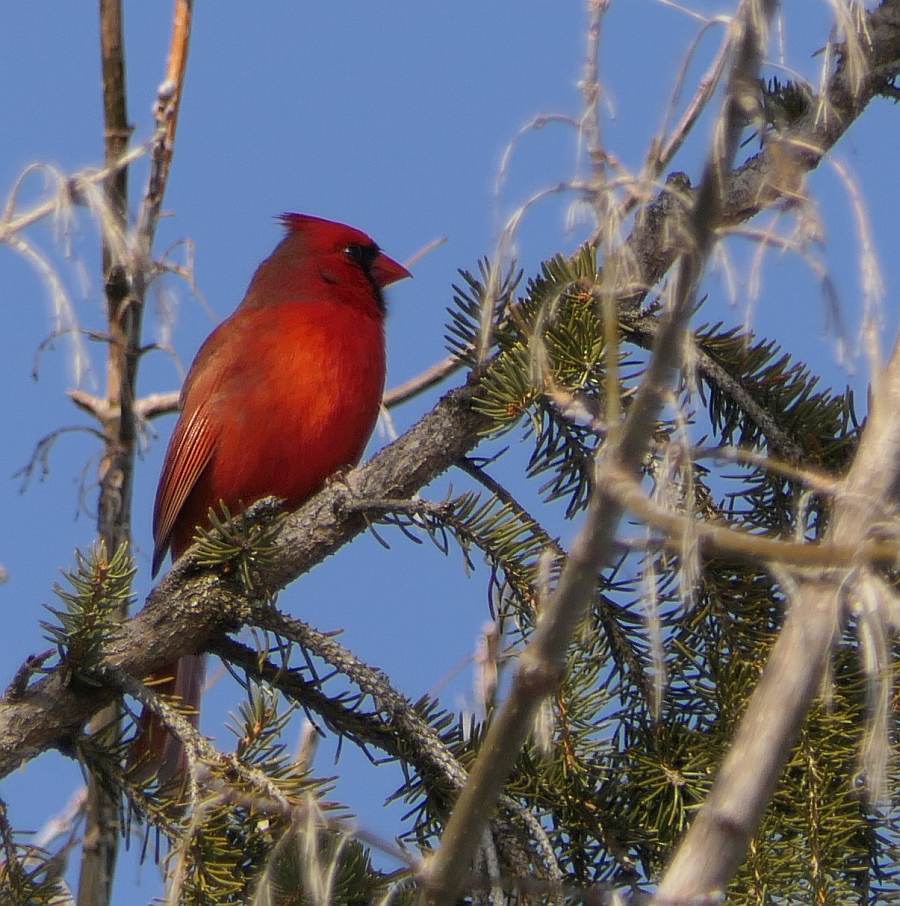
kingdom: Animalia
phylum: Chordata
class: Aves
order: Passeriformes
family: Cardinalidae
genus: Cardinalis
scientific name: Cardinalis cardinalis
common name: Northern cardinal
